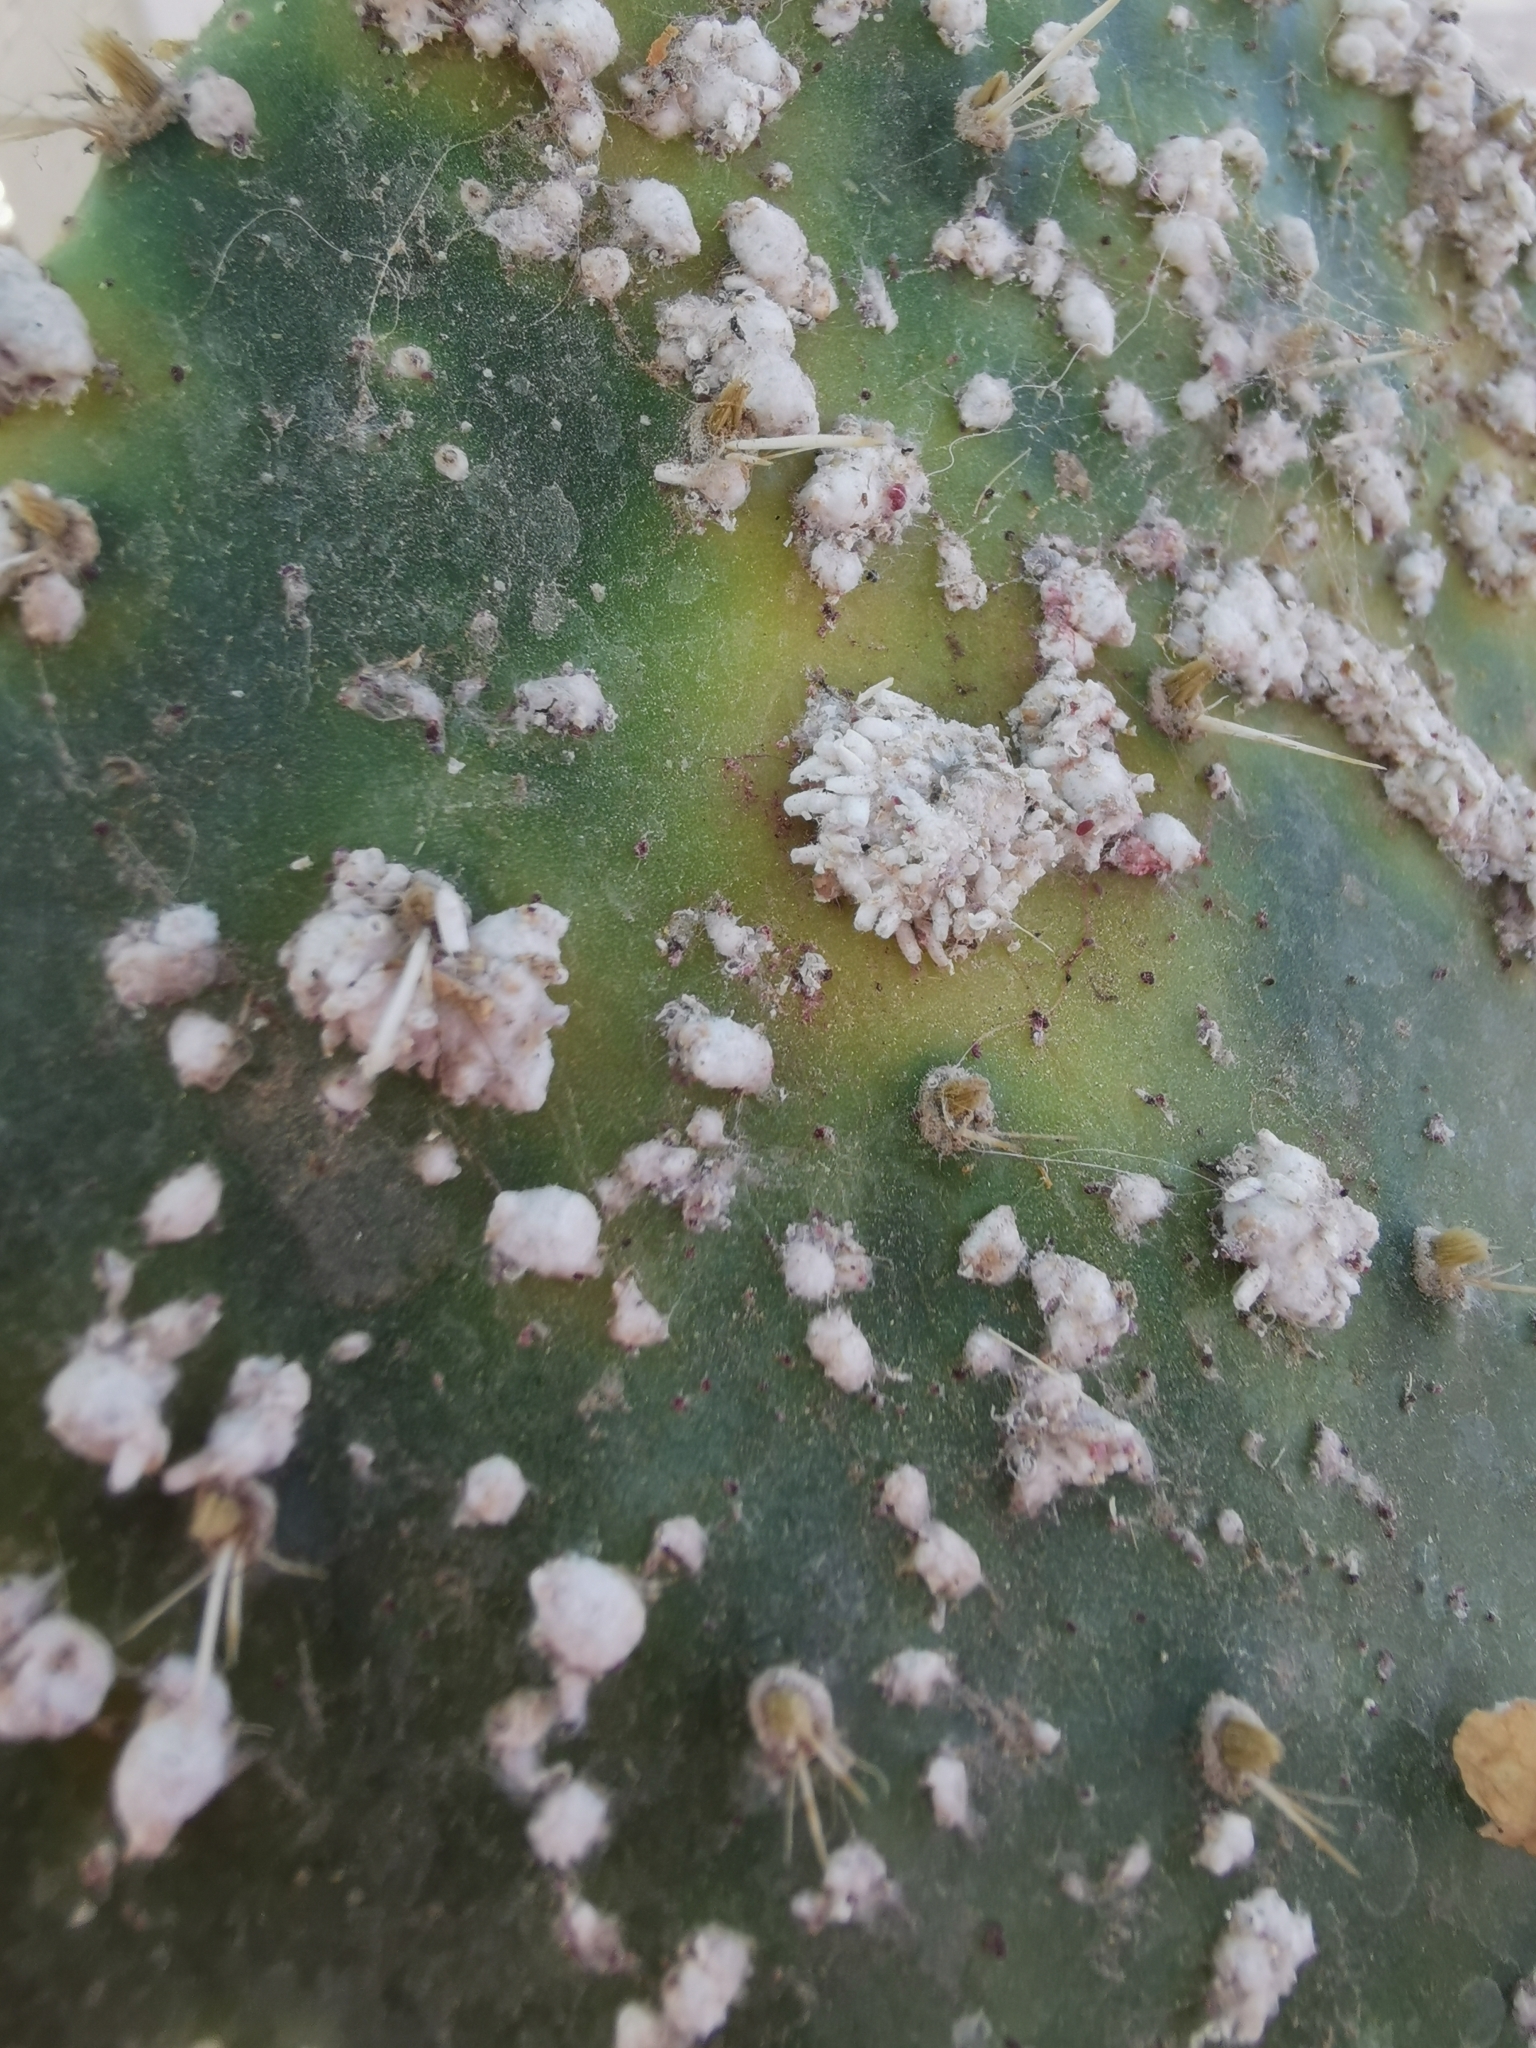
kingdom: Animalia
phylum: Arthropoda
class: Insecta
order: Hemiptera
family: Dactylopiidae
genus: Dactylopius
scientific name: Dactylopius coccus
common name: Cochineal
